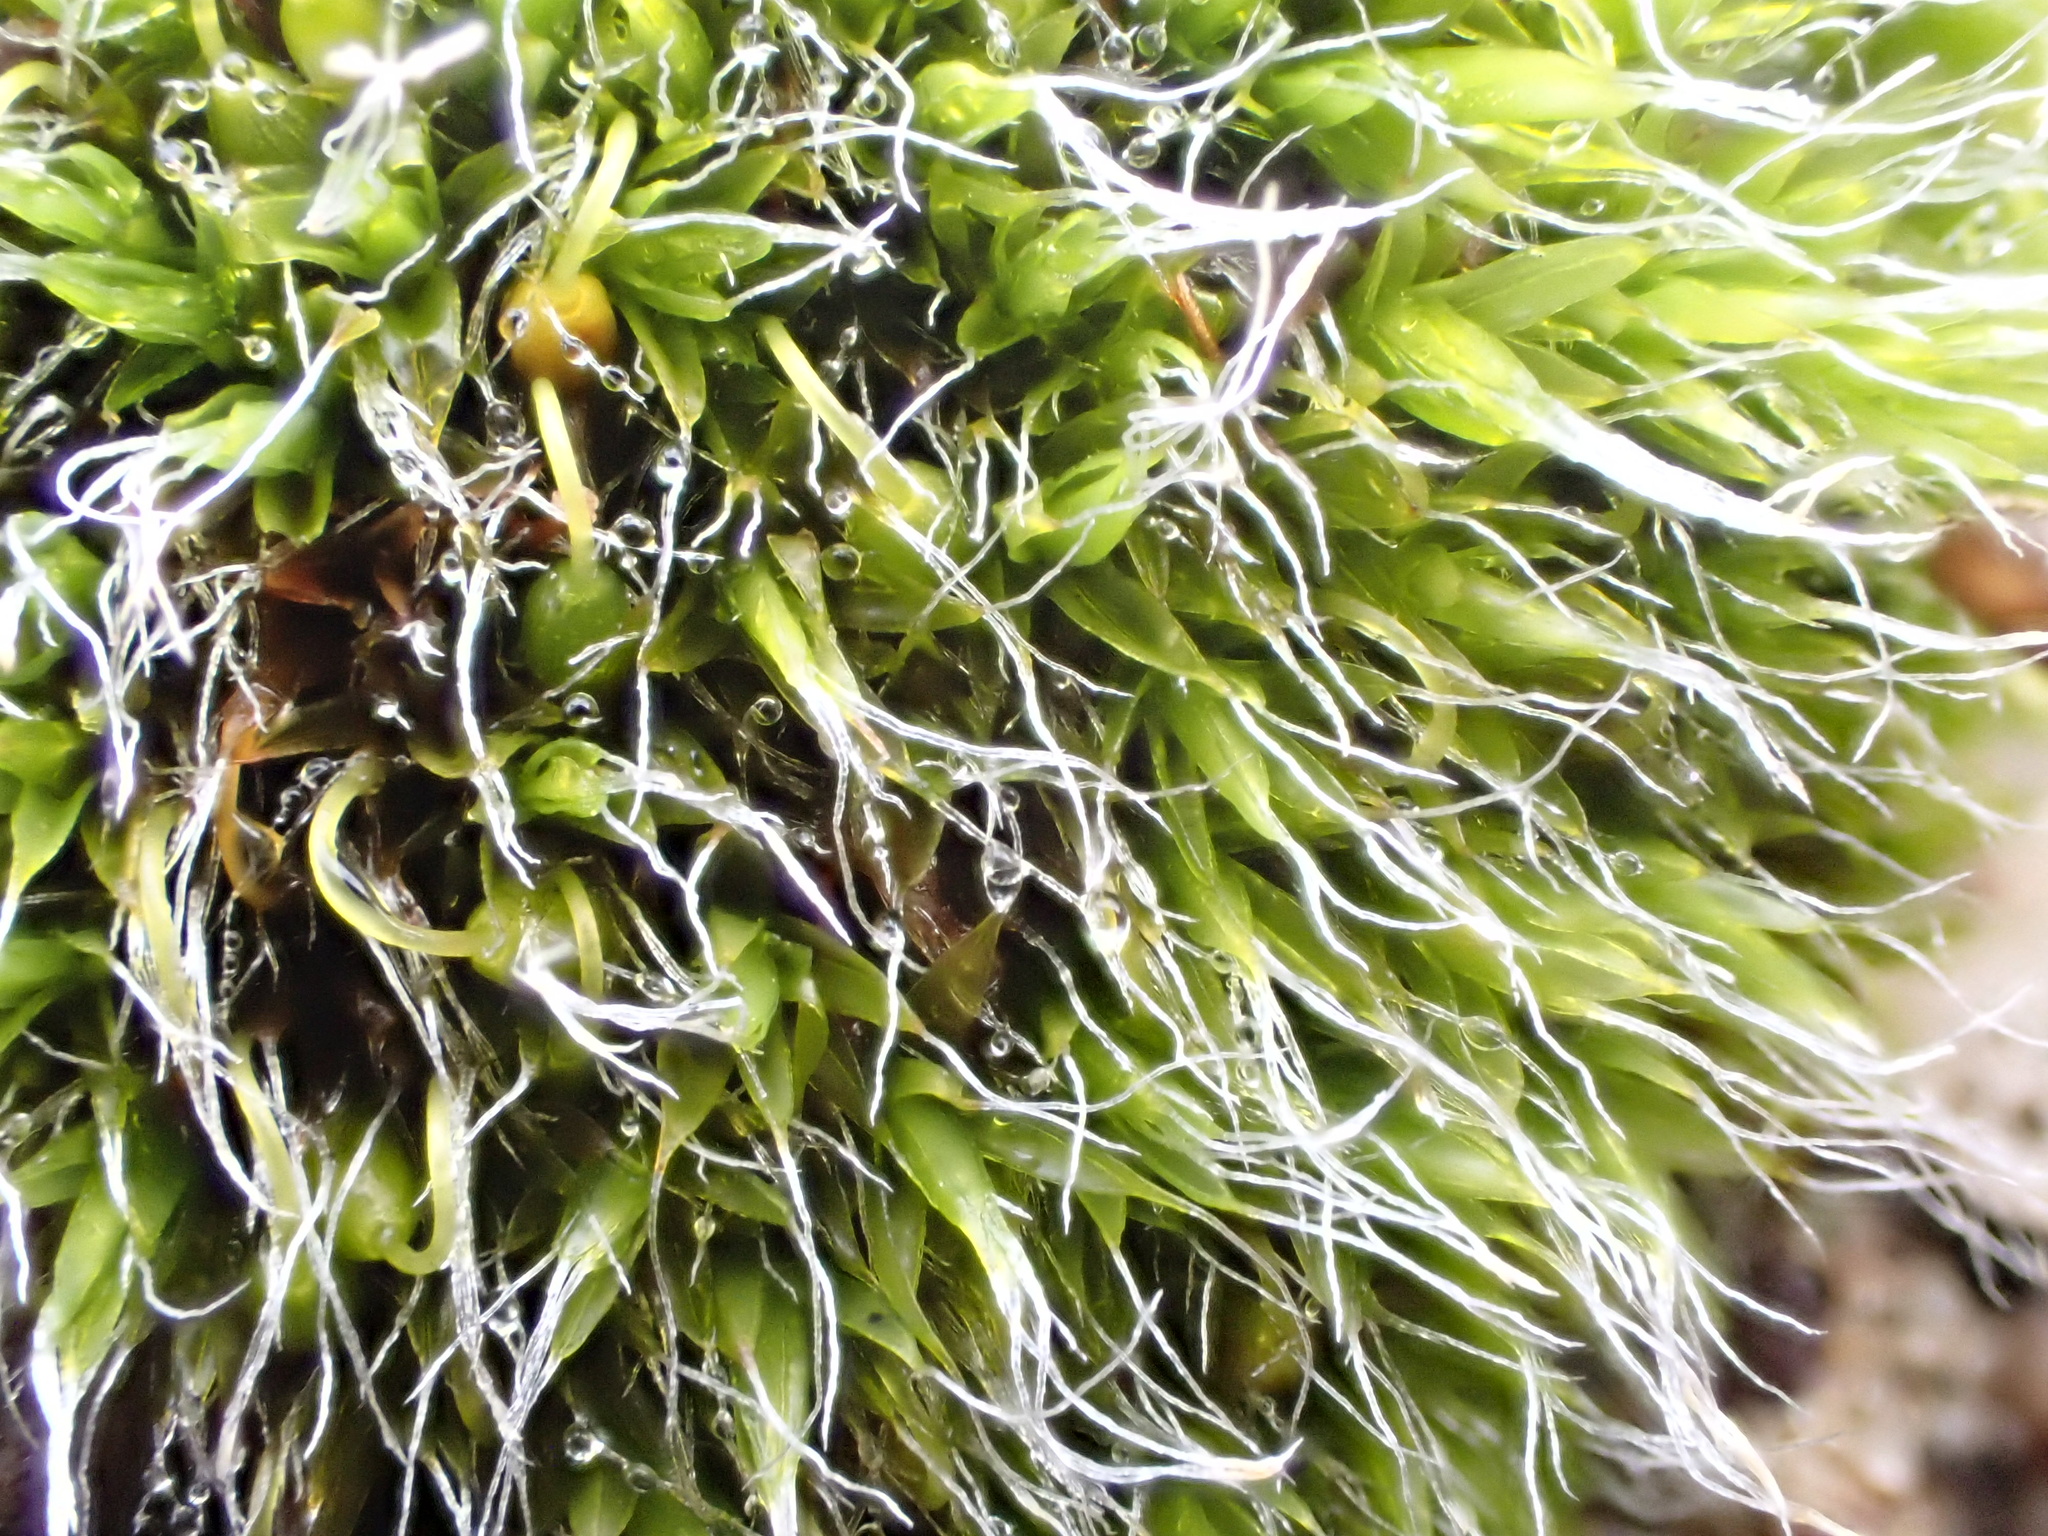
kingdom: Plantae
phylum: Bryophyta
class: Bryopsida
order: Grimmiales
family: Grimmiaceae
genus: Grimmia
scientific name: Grimmia pulvinata
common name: Grey-cushioned grimmia
